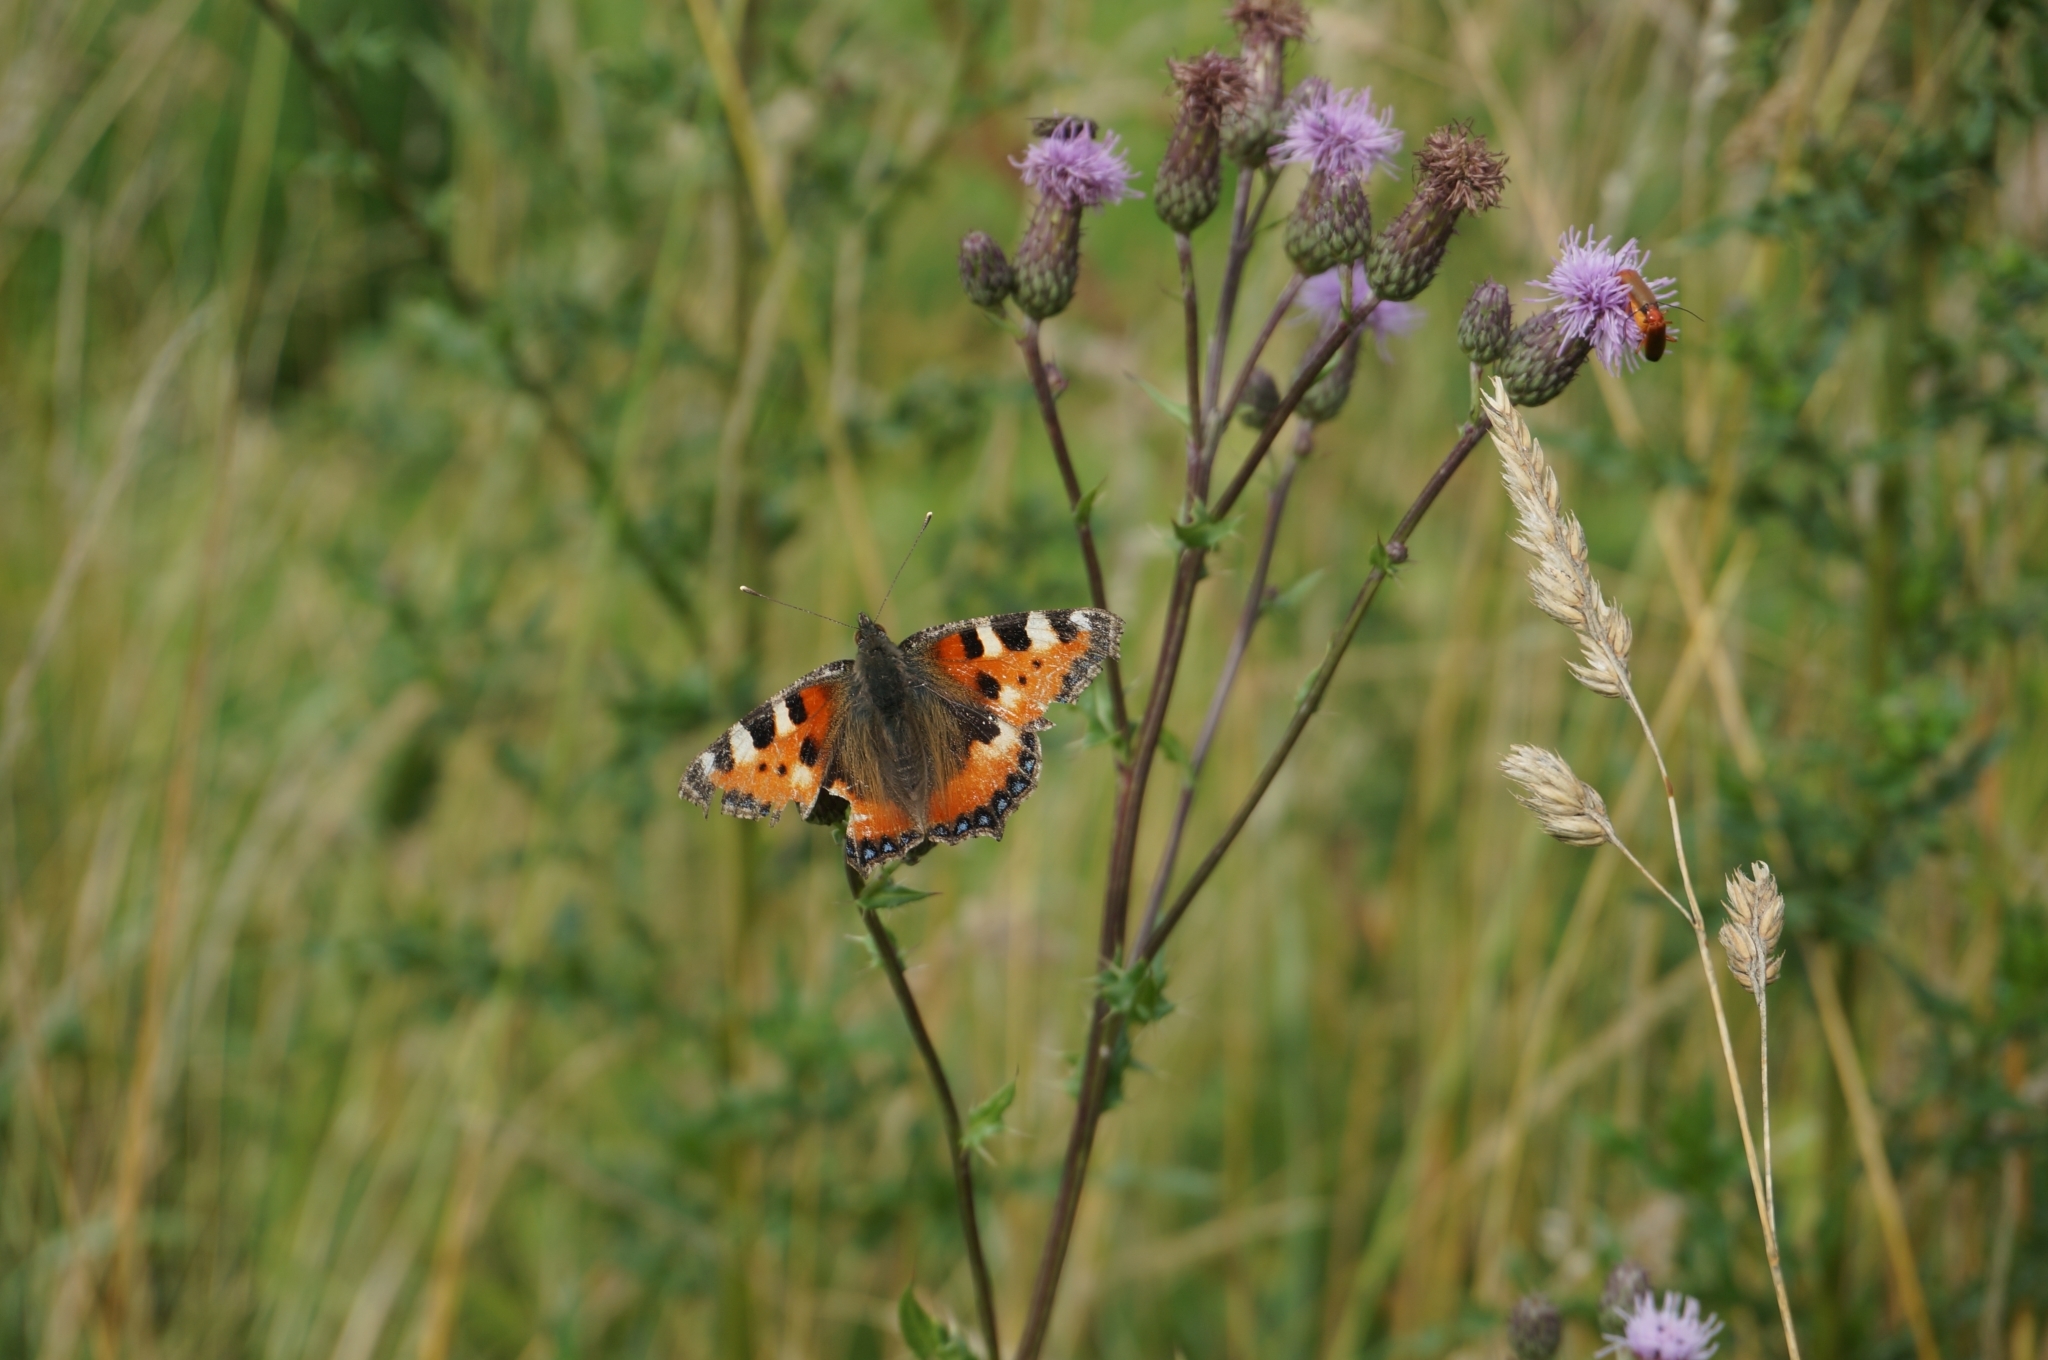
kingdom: Animalia
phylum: Arthropoda
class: Insecta
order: Lepidoptera
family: Nymphalidae
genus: Aglais
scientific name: Aglais urticae
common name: Small tortoiseshell
